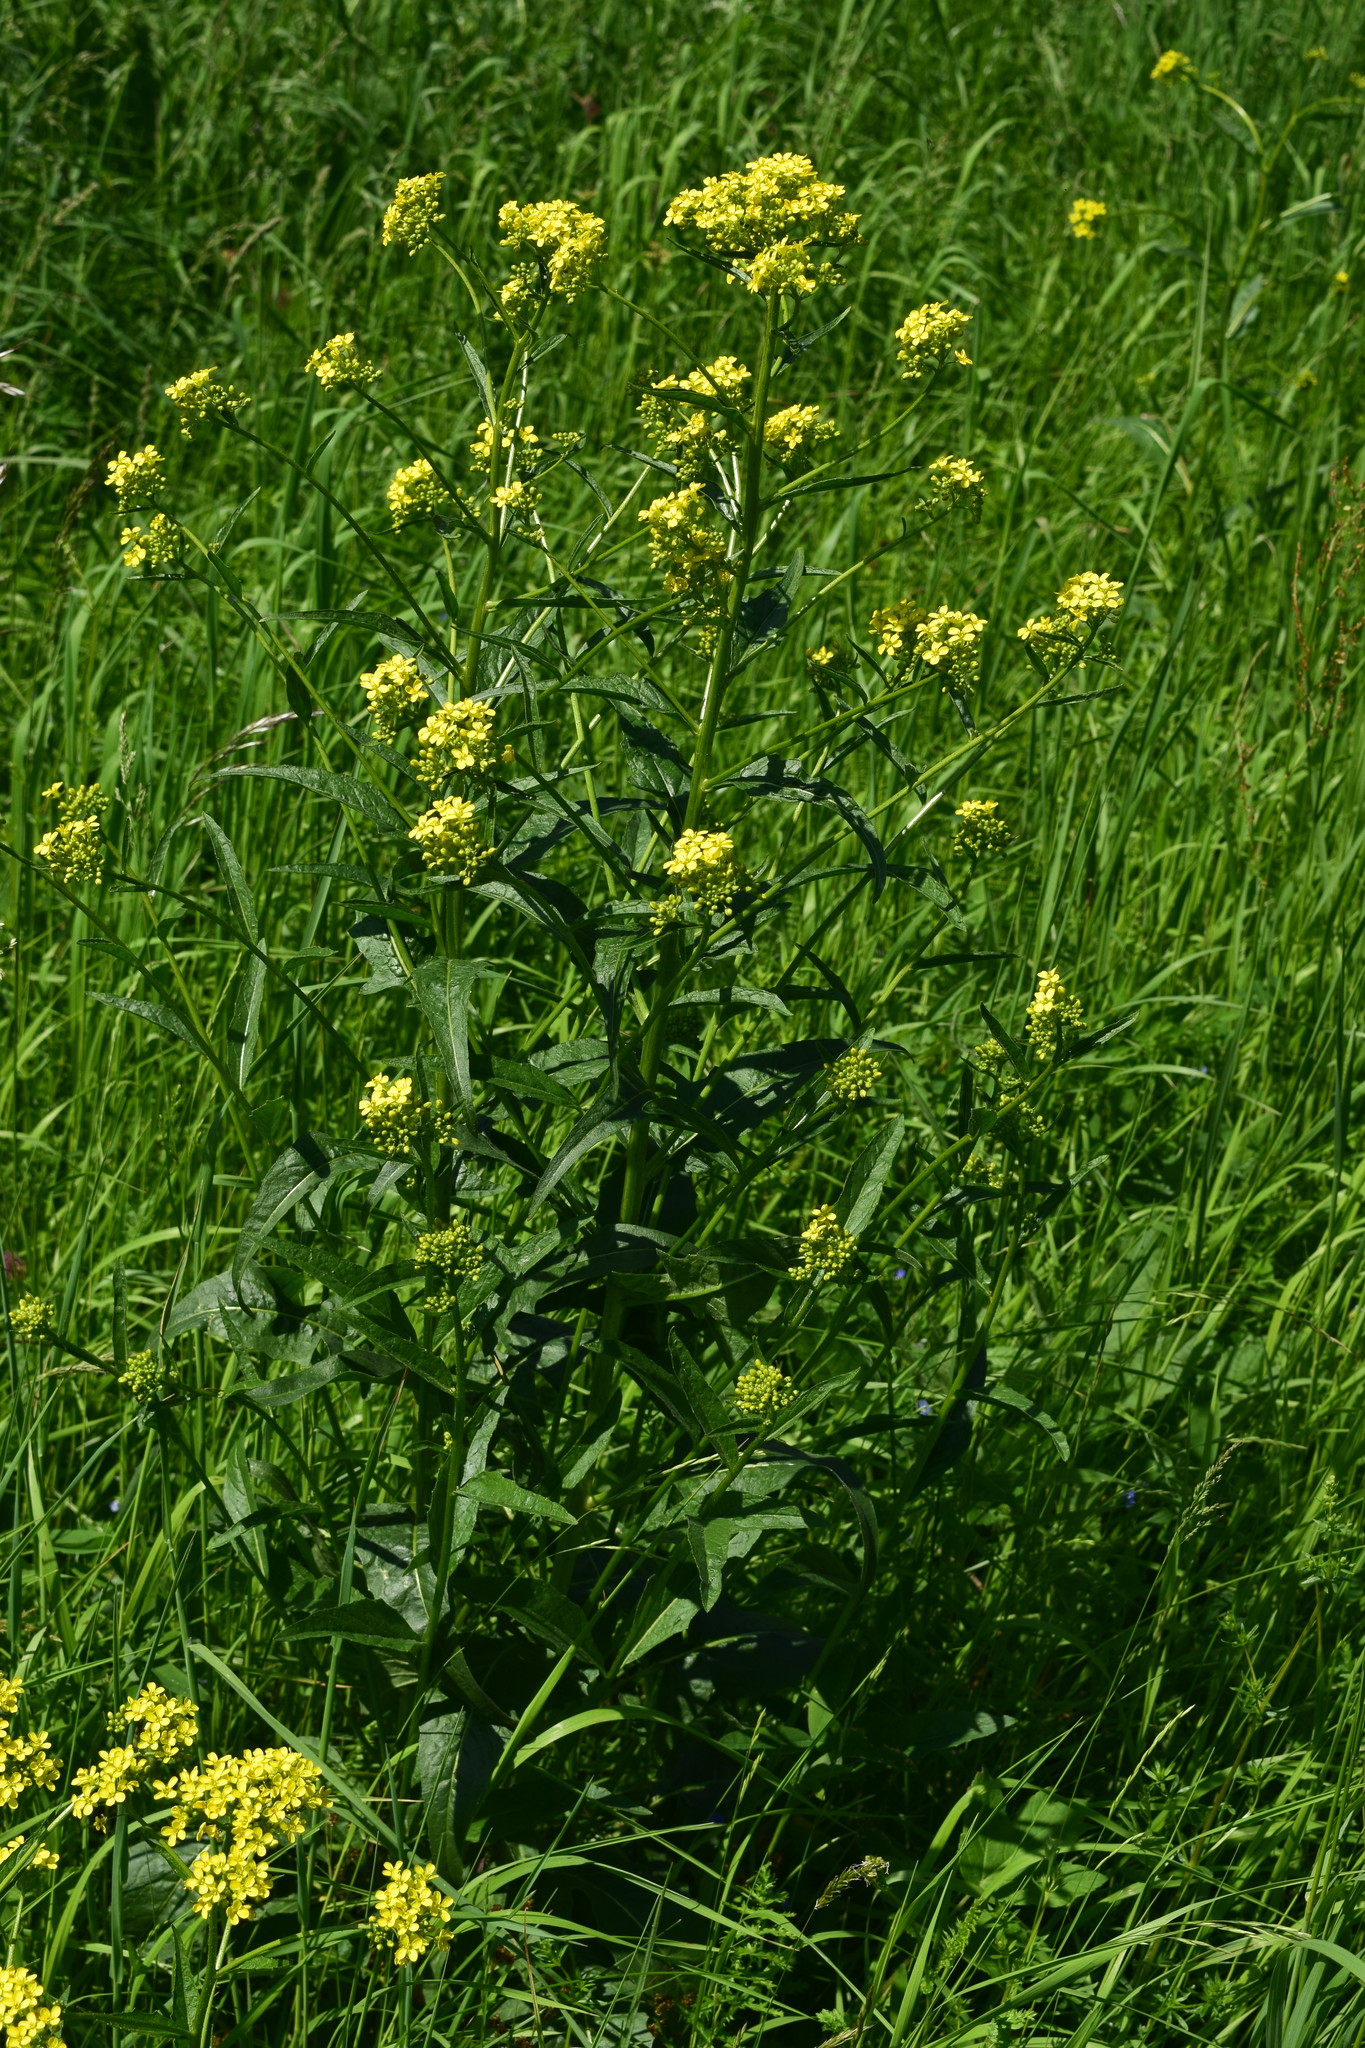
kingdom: Plantae
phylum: Tracheophyta
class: Magnoliopsida
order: Brassicales
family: Brassicaceae
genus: Bunias
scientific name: Bunias orientalis
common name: Warty-cabbage
